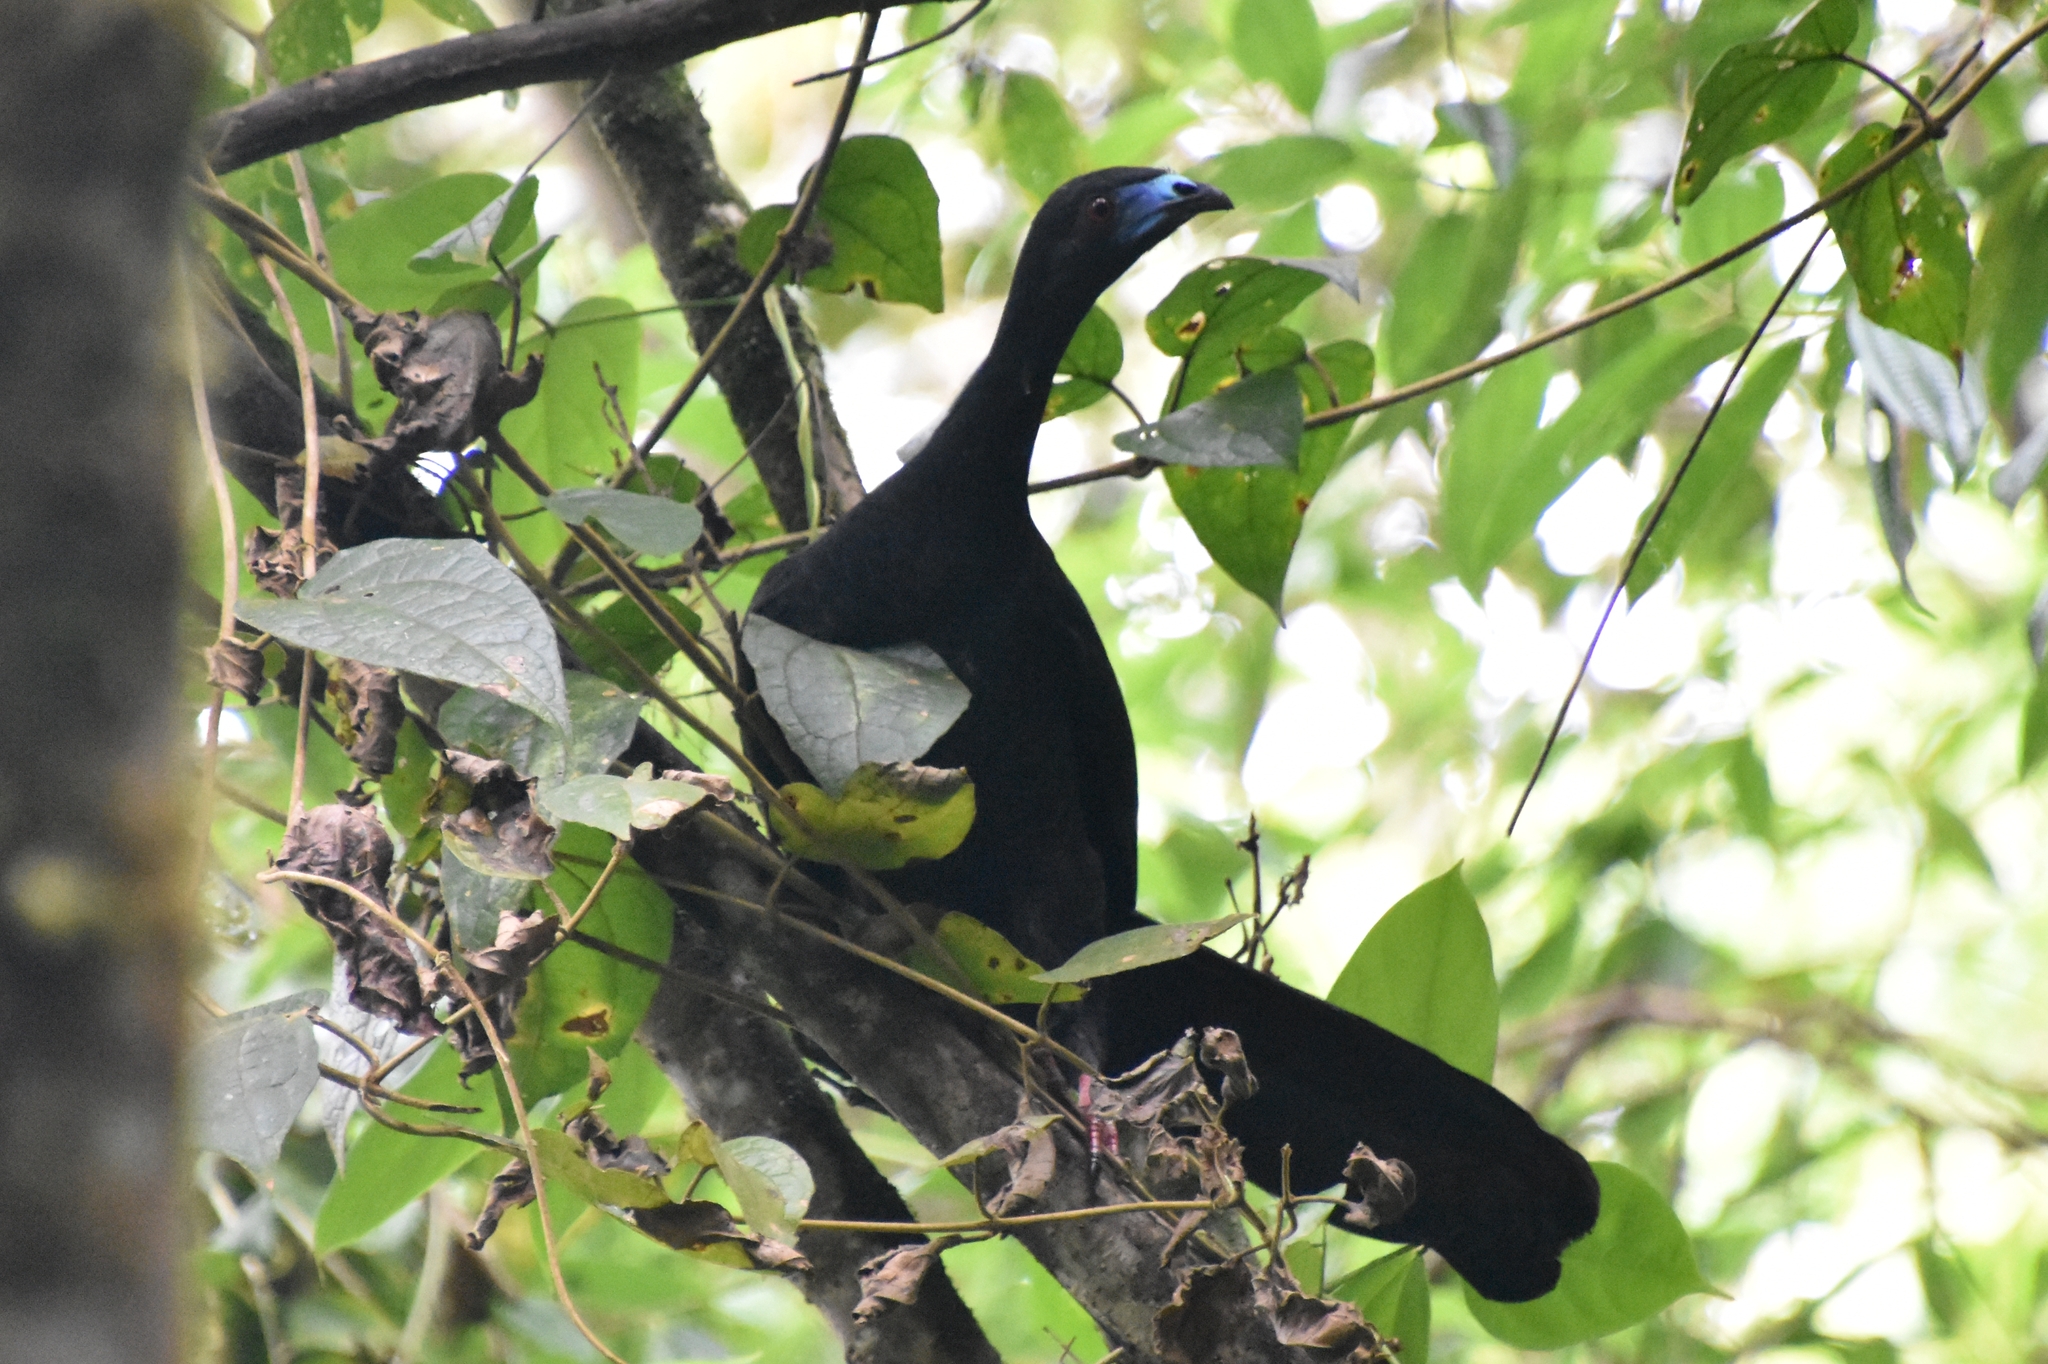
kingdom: Animalia
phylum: Chordata
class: Aves
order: Galliformes
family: Cracidae
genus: Chamaepetes
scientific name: Chamaepetes unicolor
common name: Black guan
